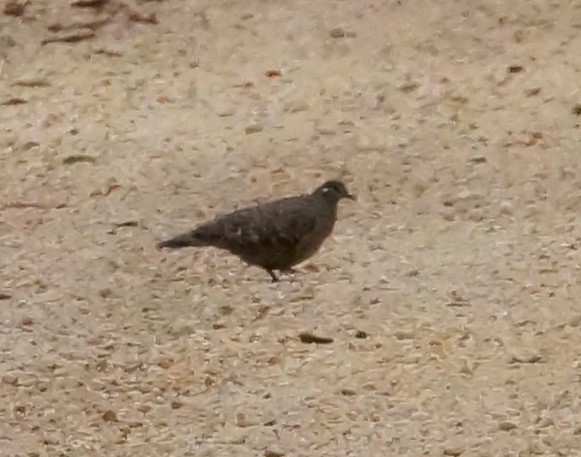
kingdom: Animalia
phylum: Chordata
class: Aves
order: Columbiformes
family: Columbidae
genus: Phaps
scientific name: Phaps chalcoptera
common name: Common bronzewing
